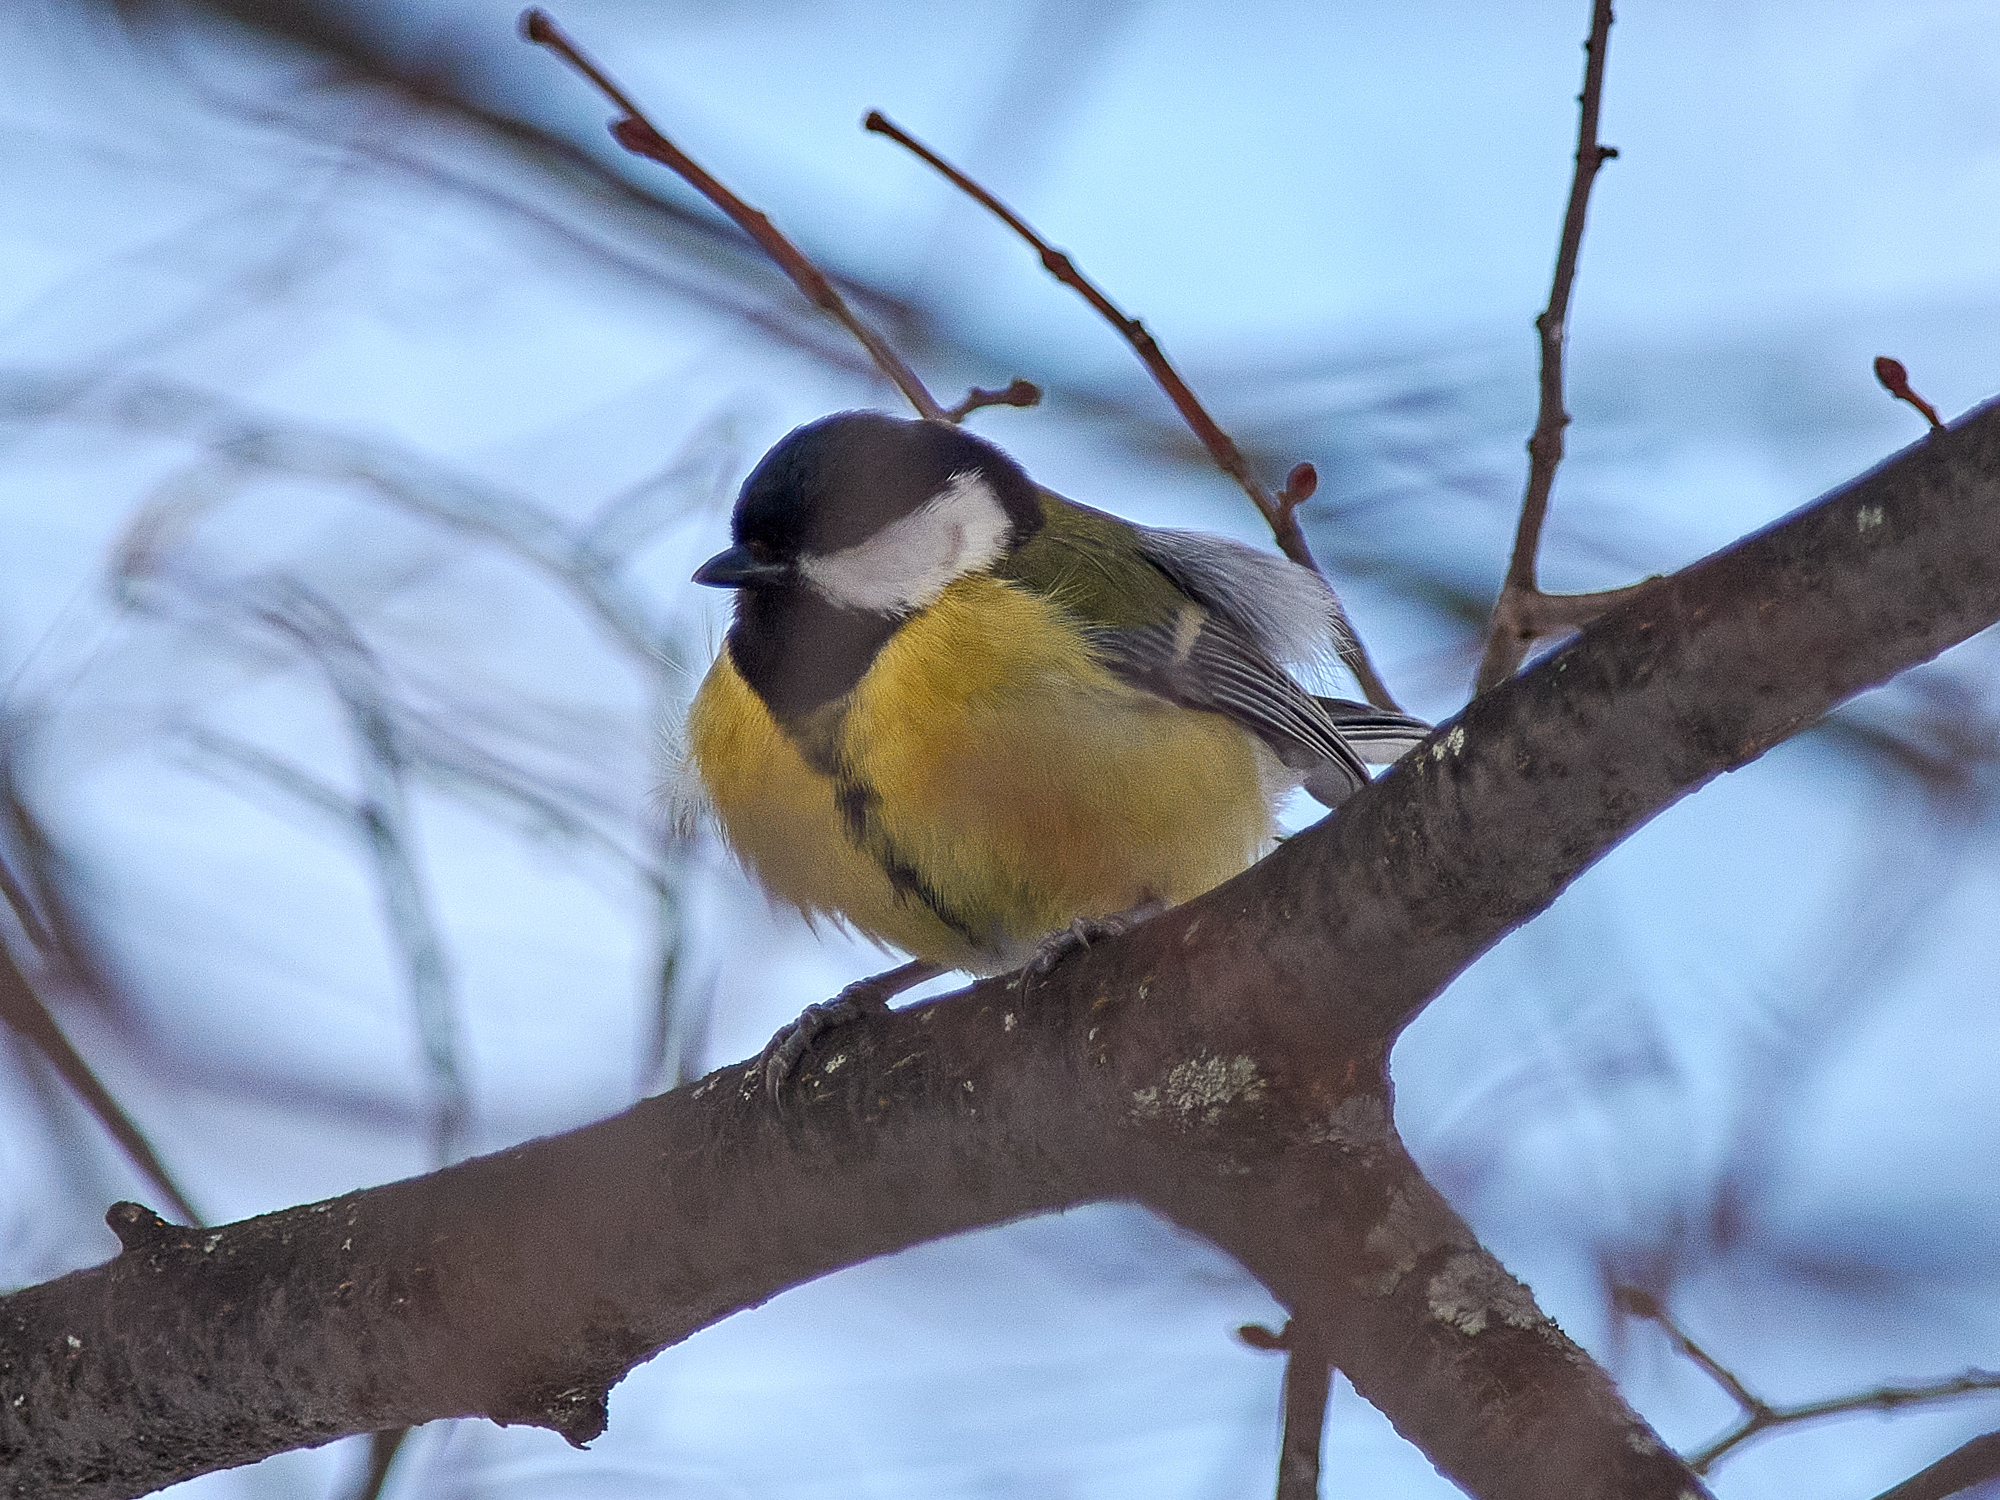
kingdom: Animalia
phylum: Chordata
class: Aves
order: Passeriformes
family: Paridae
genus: Parus
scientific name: Parus major
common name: Great tit
